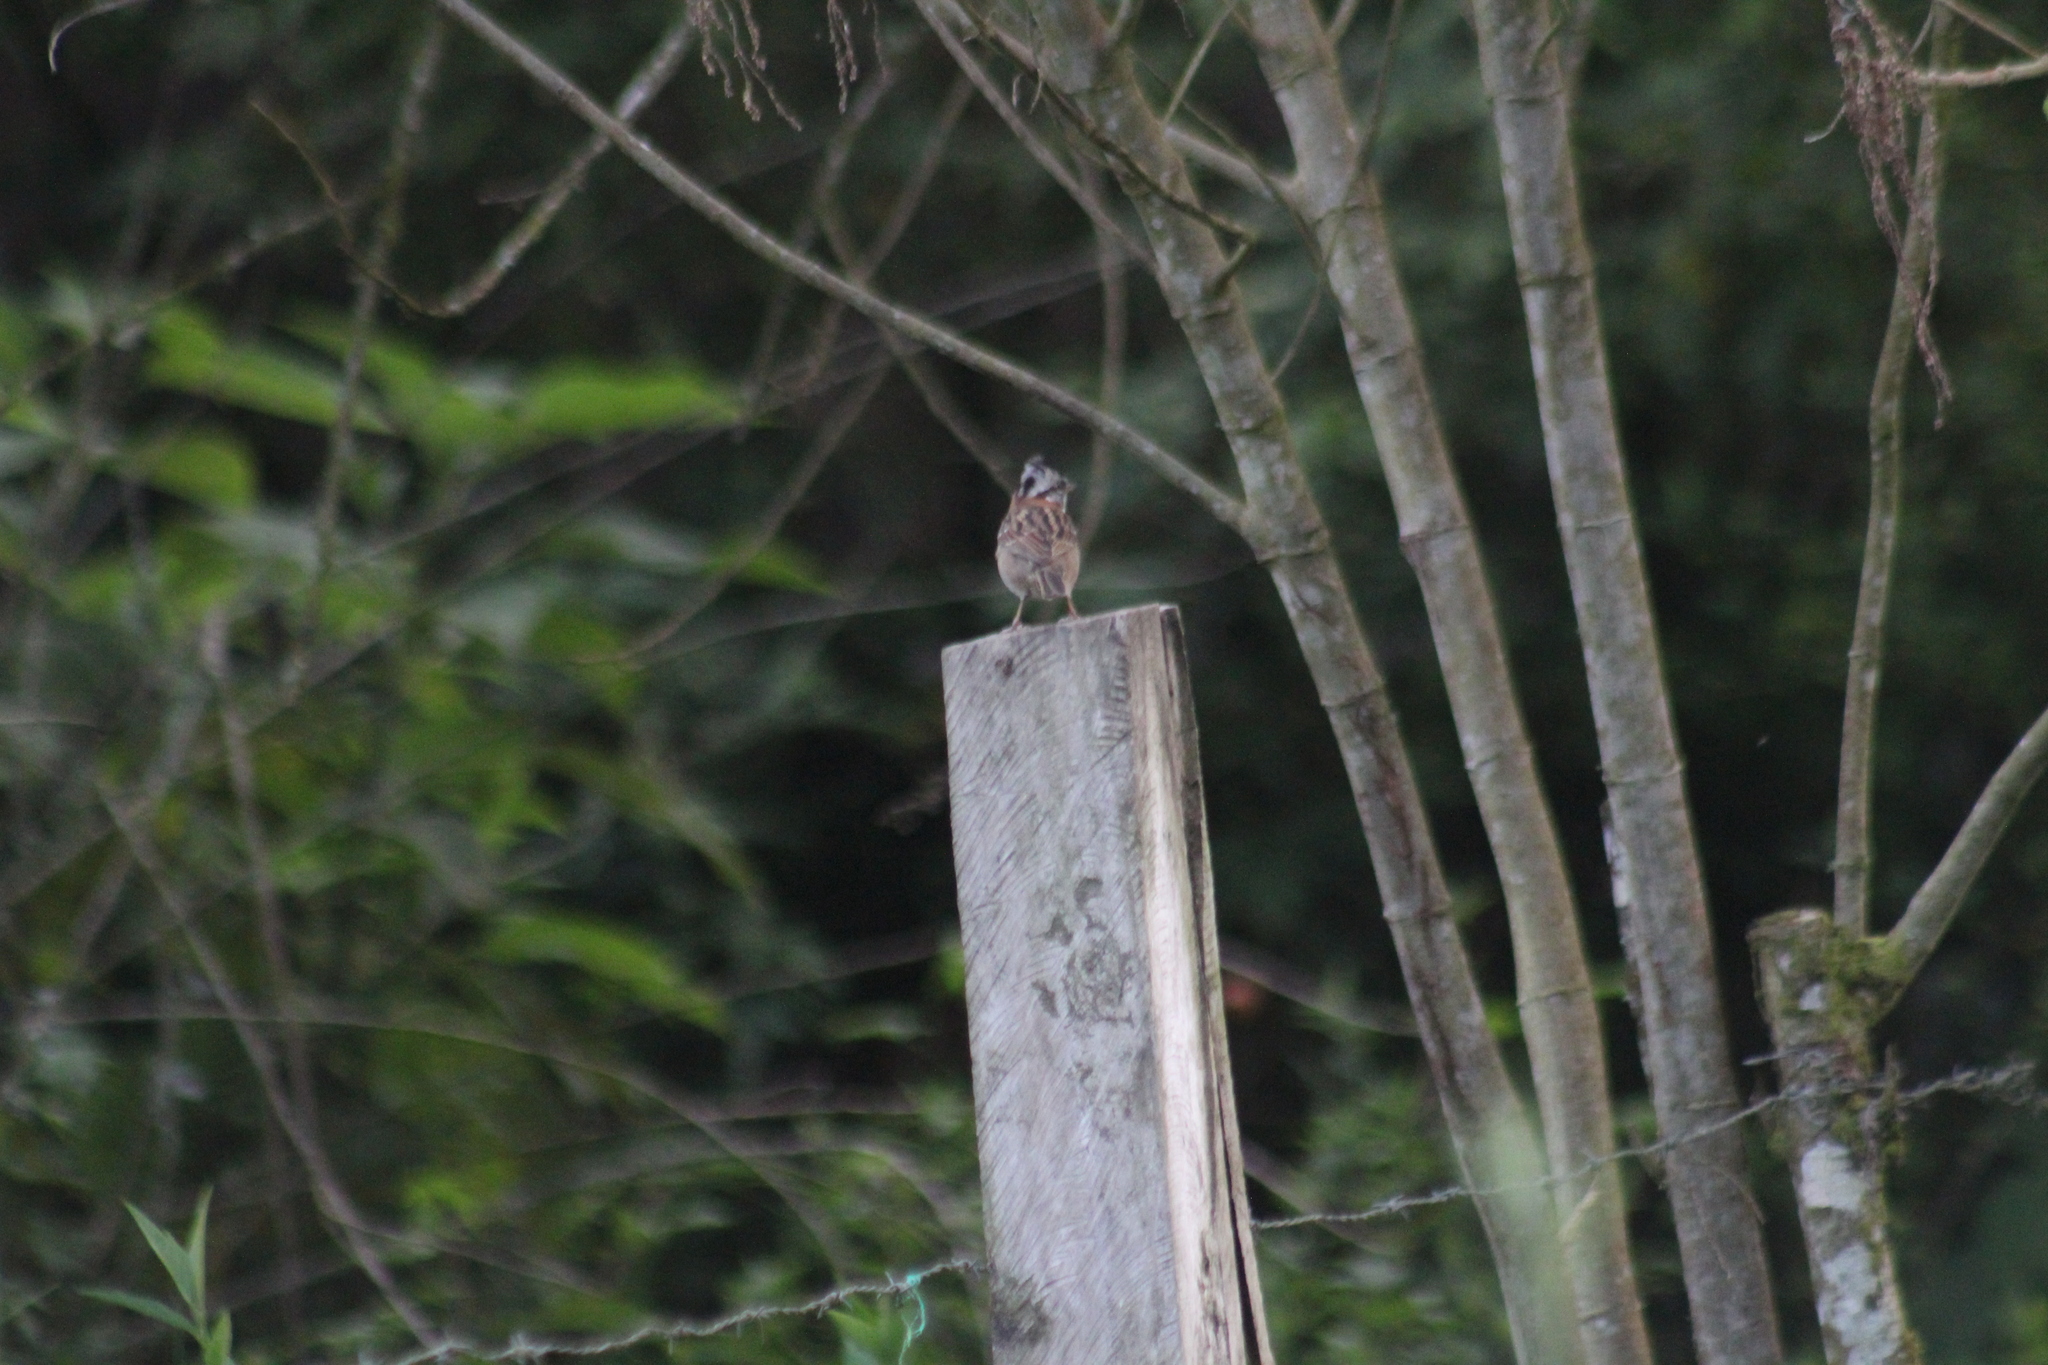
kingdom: Animalia
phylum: Chordata
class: Aves
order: Passeriformes
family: Passerellidae
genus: Zonotrichia
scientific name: Zonotrichia capensis
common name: Rufous-collared sparrow
